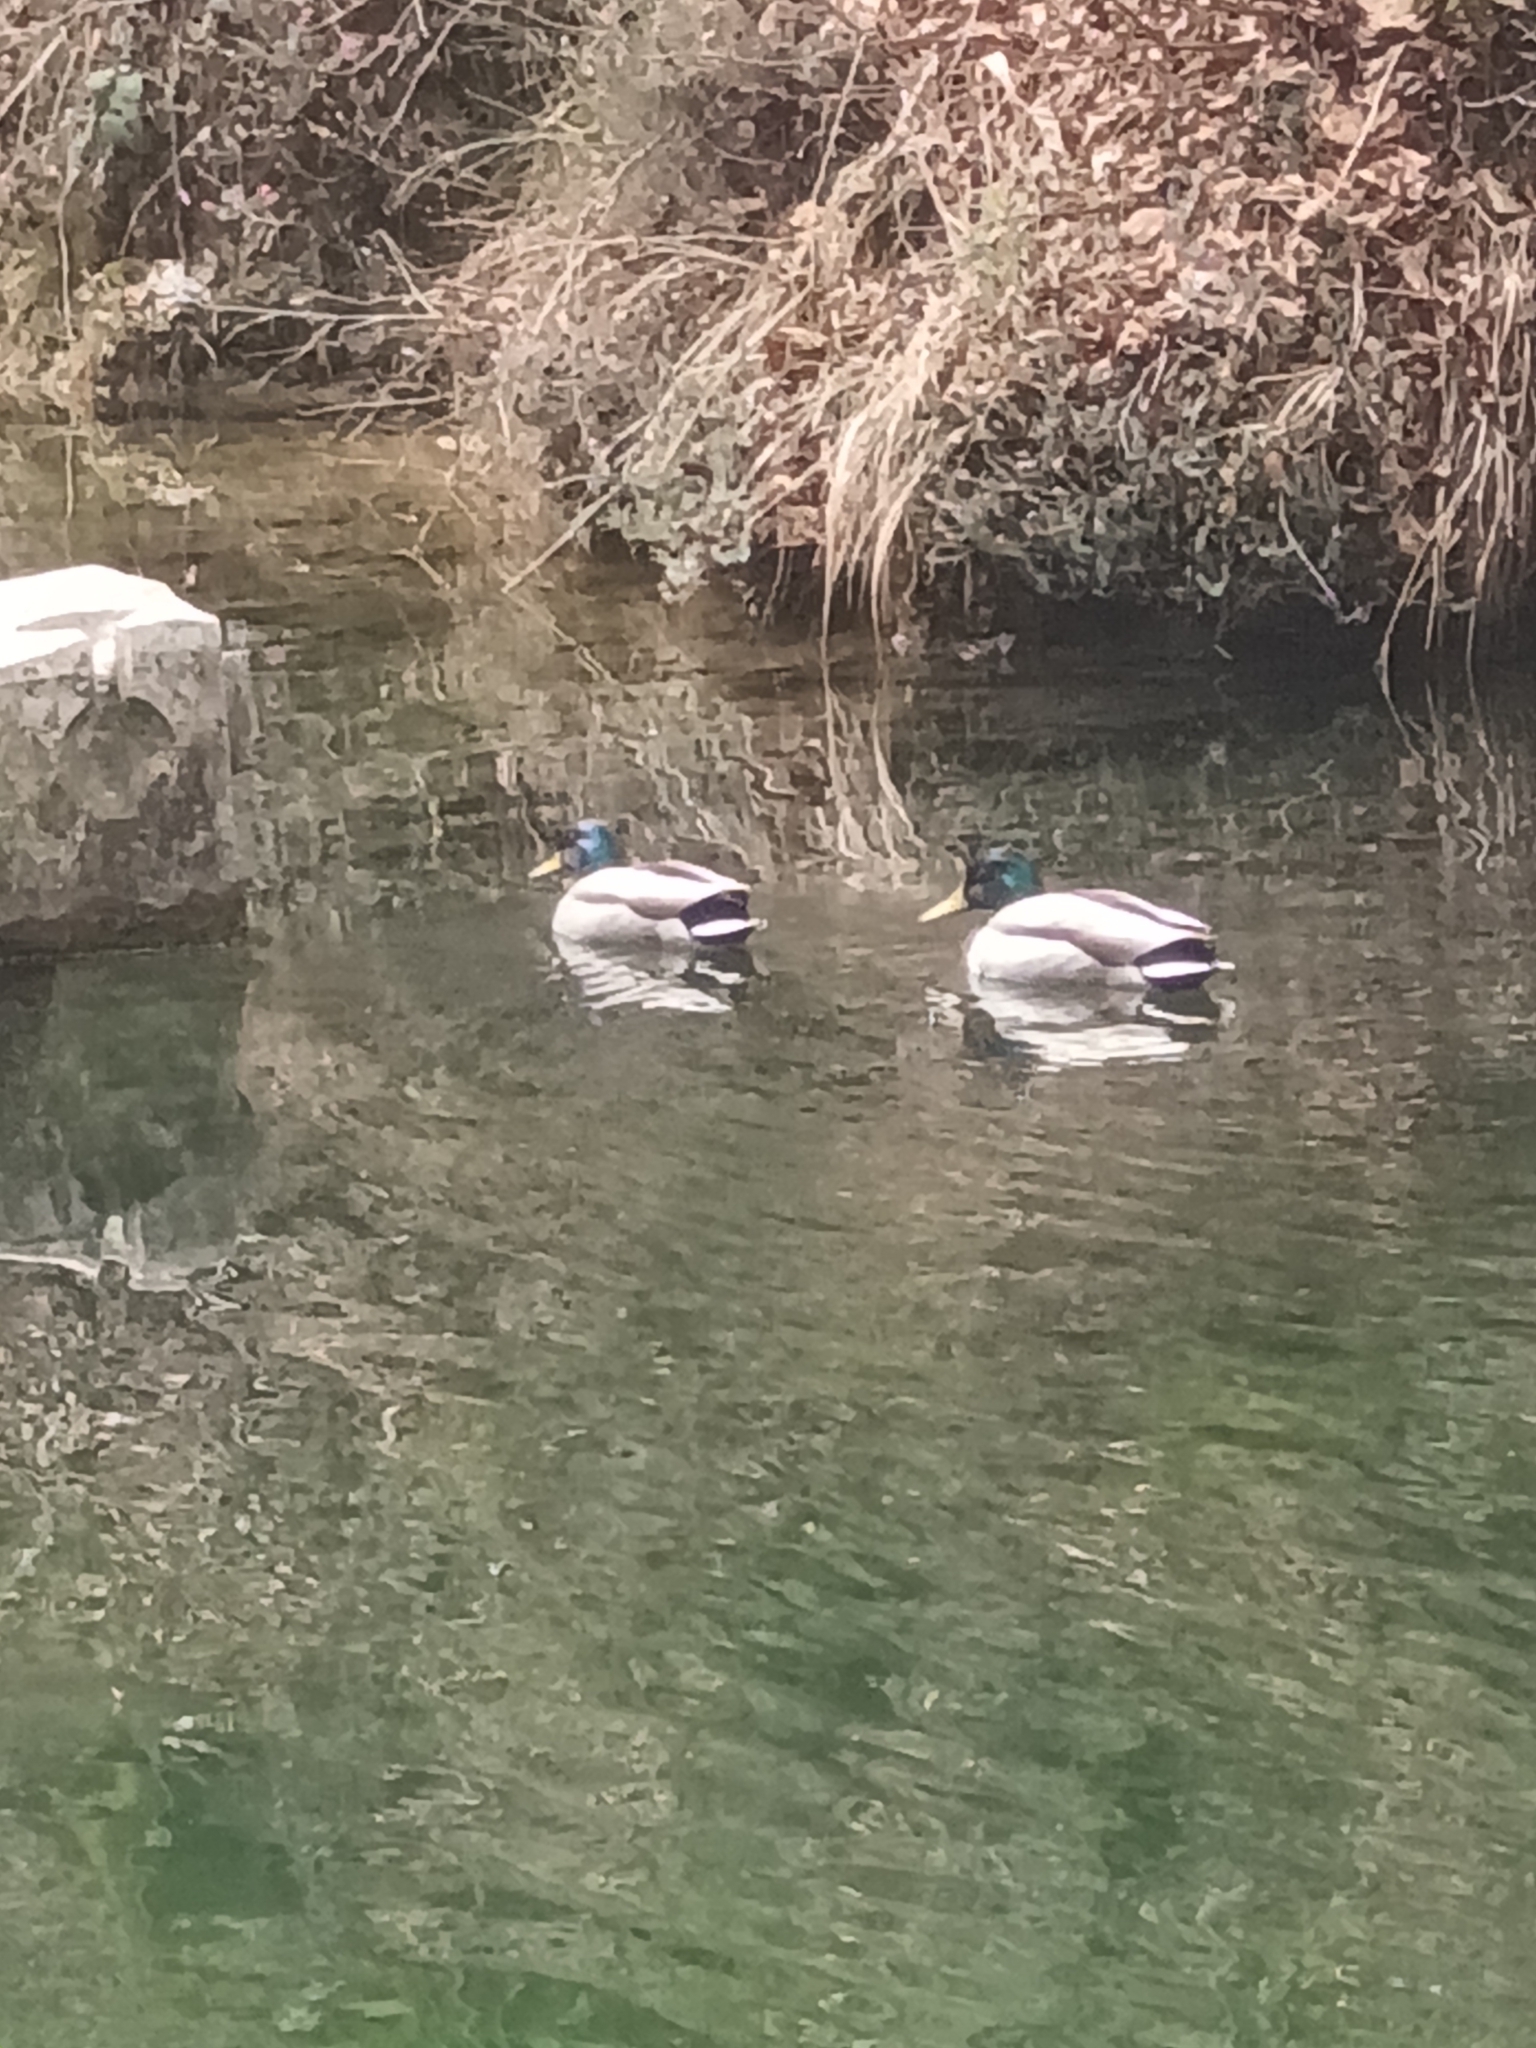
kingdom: Animalia
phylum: Chordata
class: Aves
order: Anseriformes
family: Anatidae
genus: Anas
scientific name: Anas platyrhynchos
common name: Mallard
